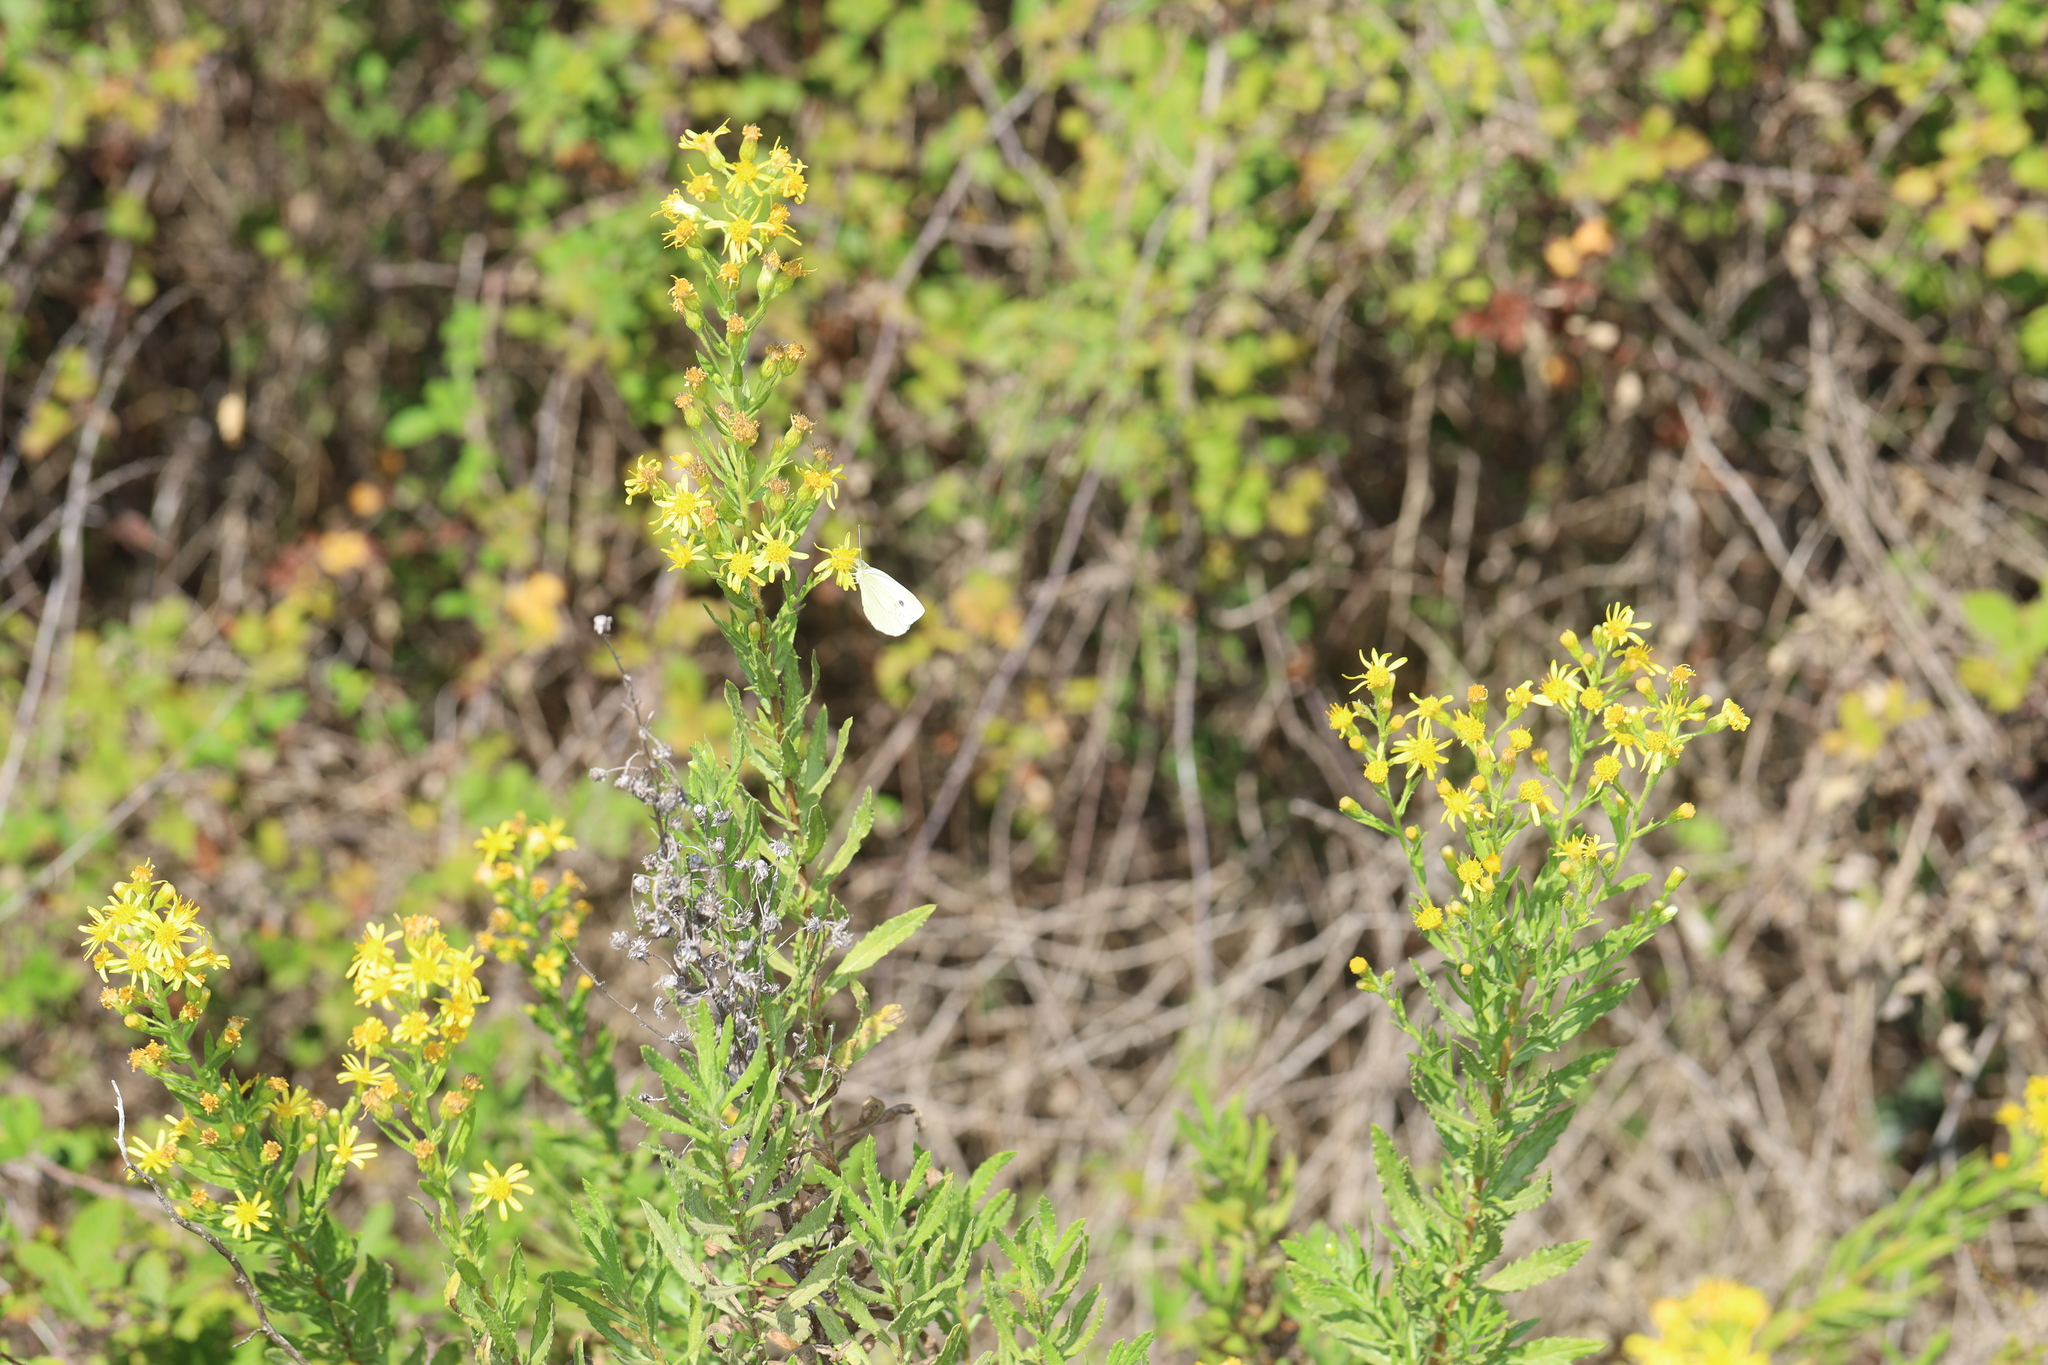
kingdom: Plantae
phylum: Tracheophyta
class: Magnoliopsida
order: Asterales
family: Asteraceae
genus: Dittrichia
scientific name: Dittrichia viscosa
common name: Woody fleabane
